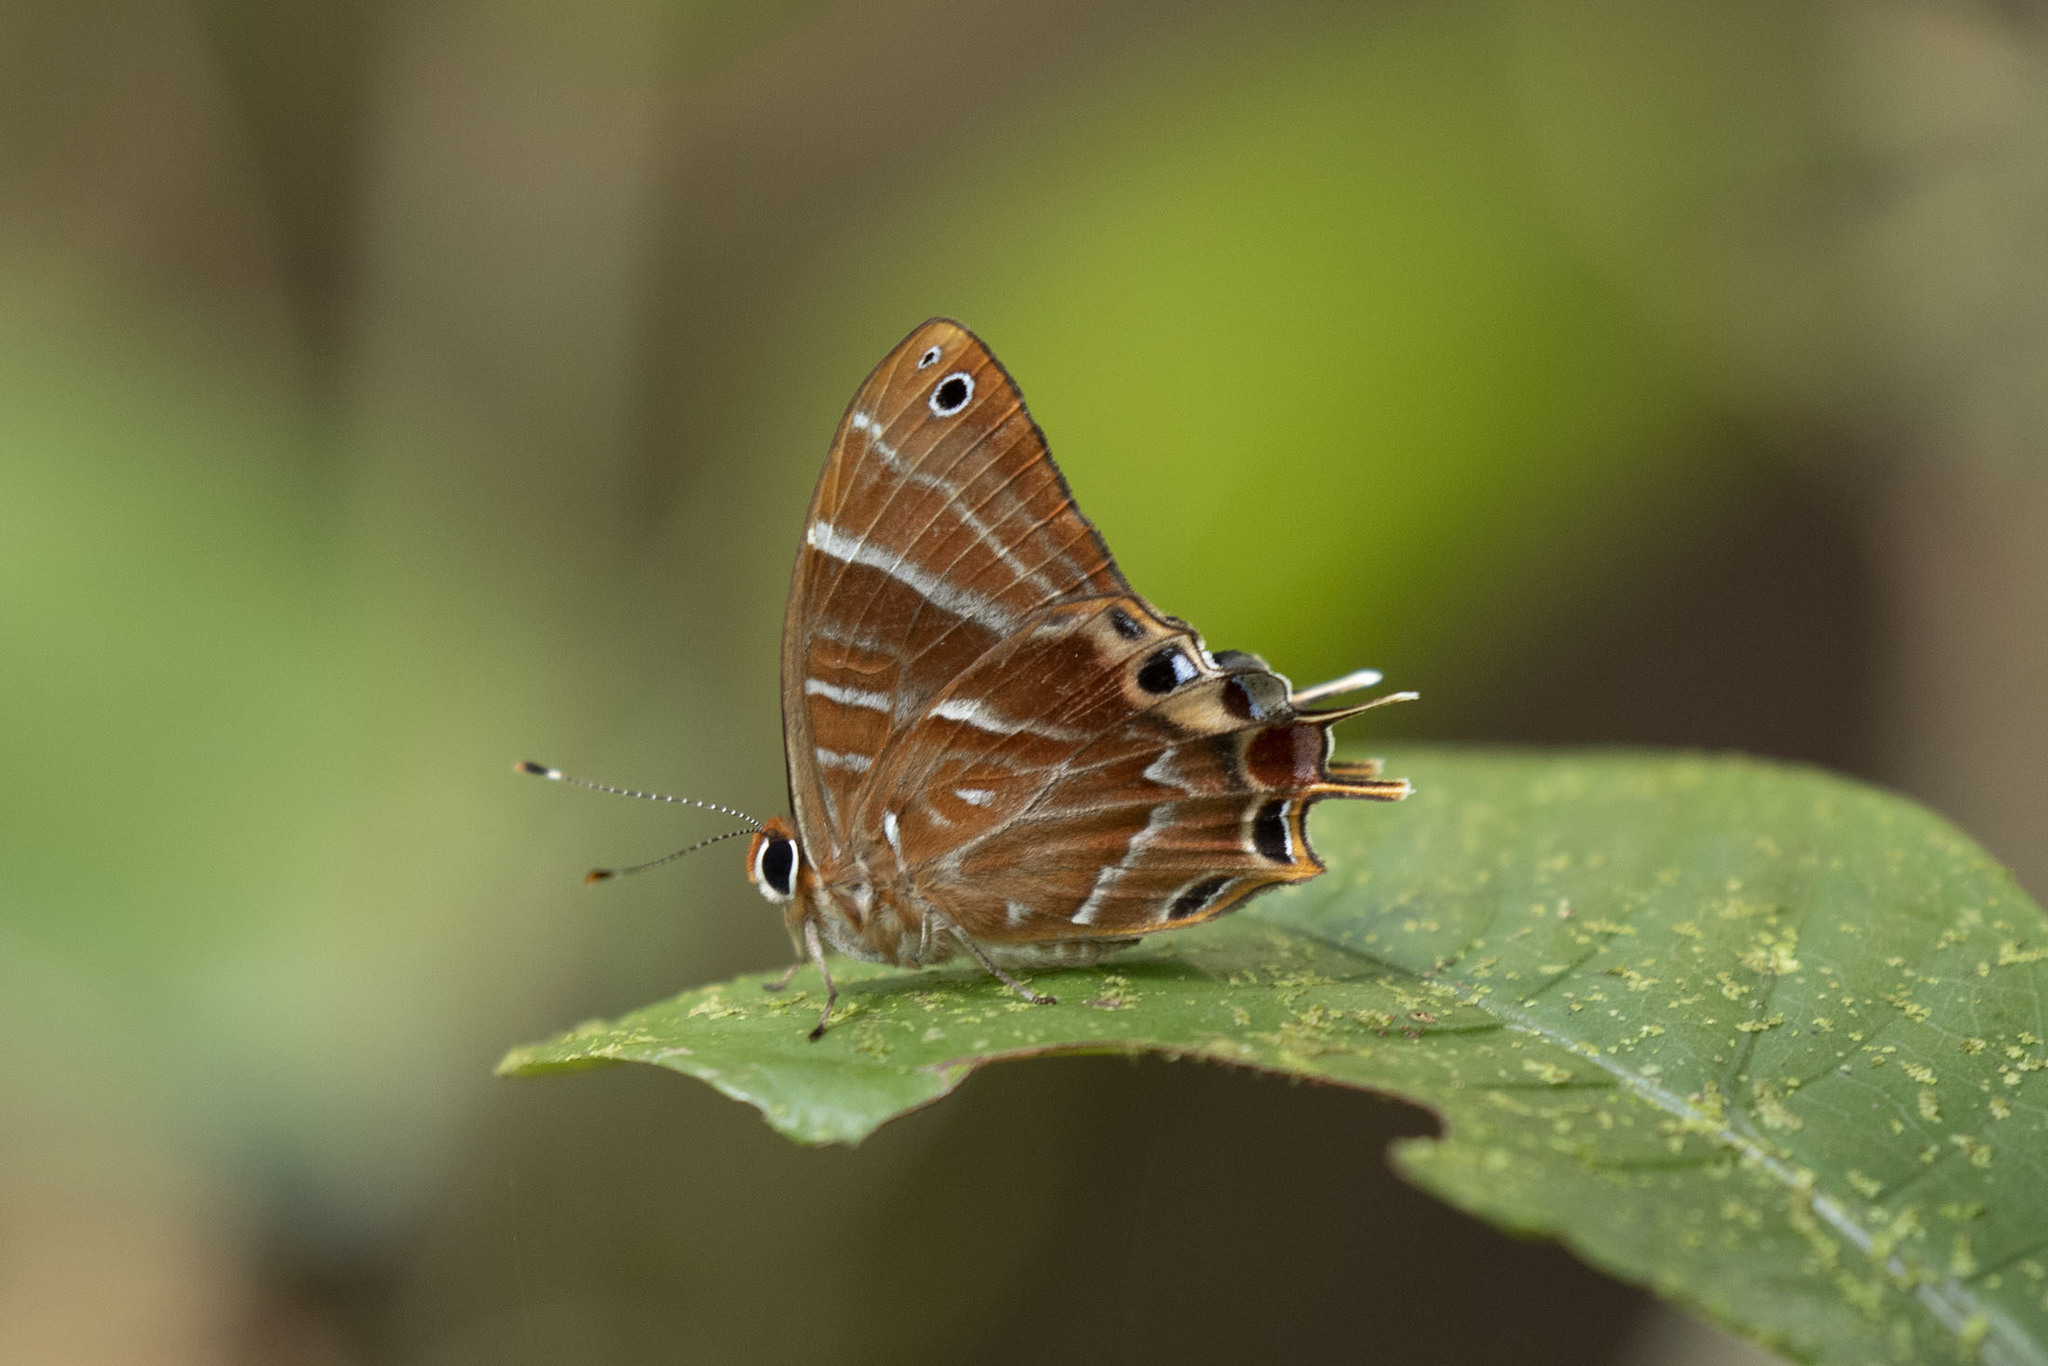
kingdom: Animalia
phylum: Arthropoda
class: Insecta
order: Lepidoptera
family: Riodinidae
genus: Saribia
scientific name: Saribia tepahi
